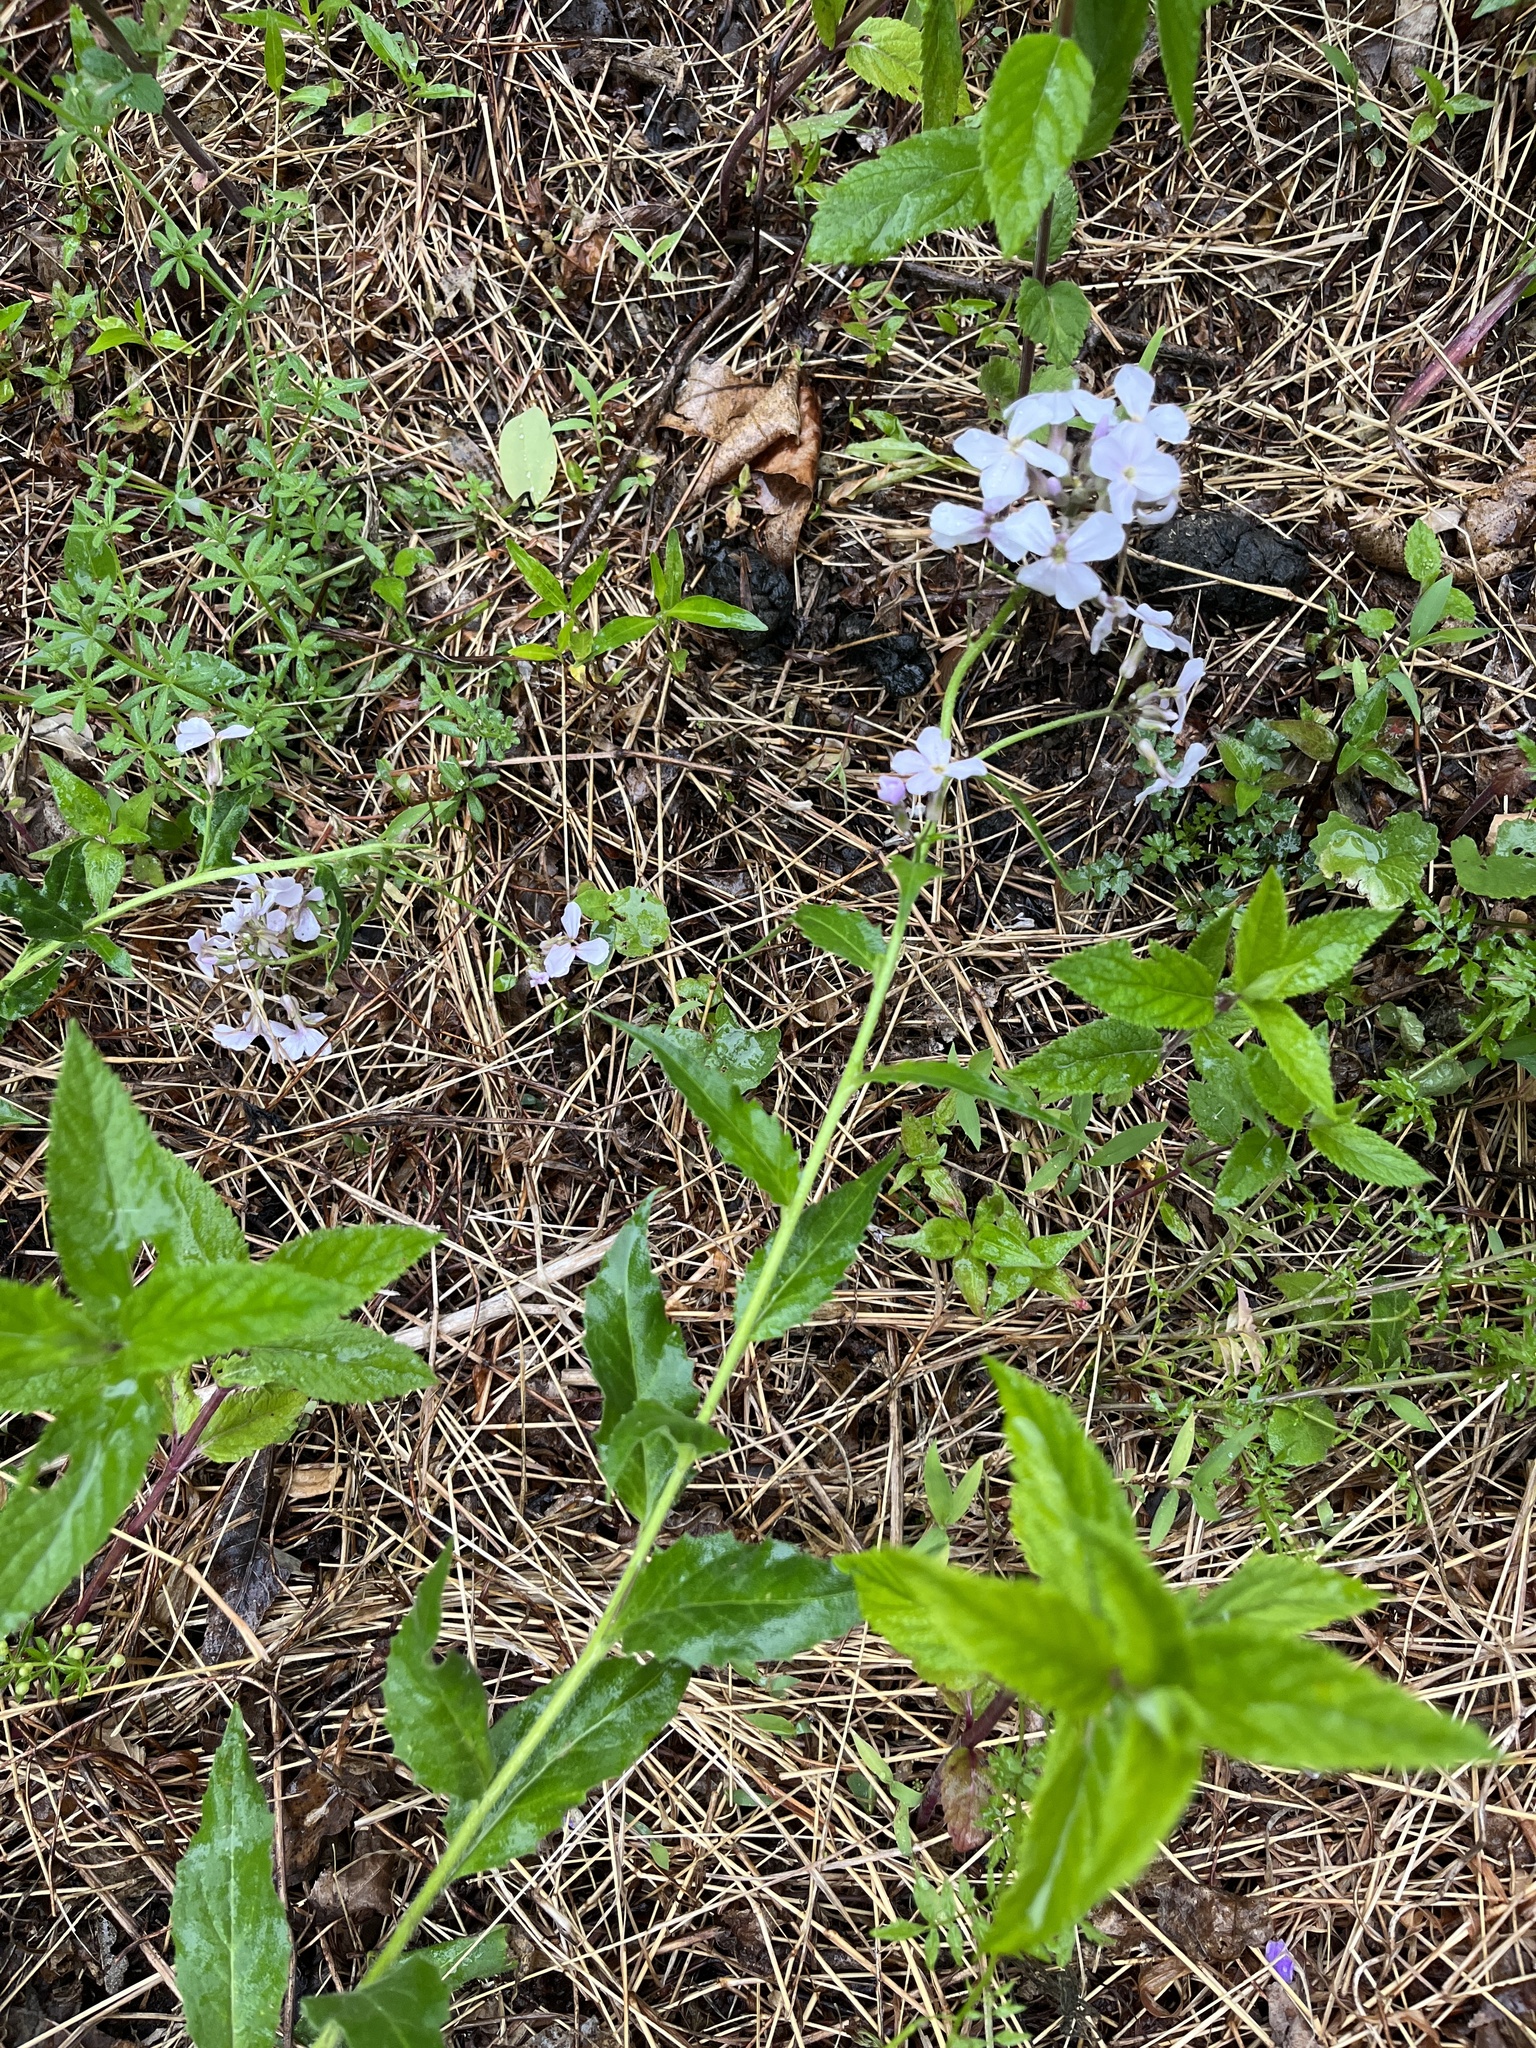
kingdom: Plantae
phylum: Tracheophyta
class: Magnoliopsida
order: Brassicales
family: Brassicaceae
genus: Hesperis
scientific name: Hesperis matronalis
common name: Dame's-violet
